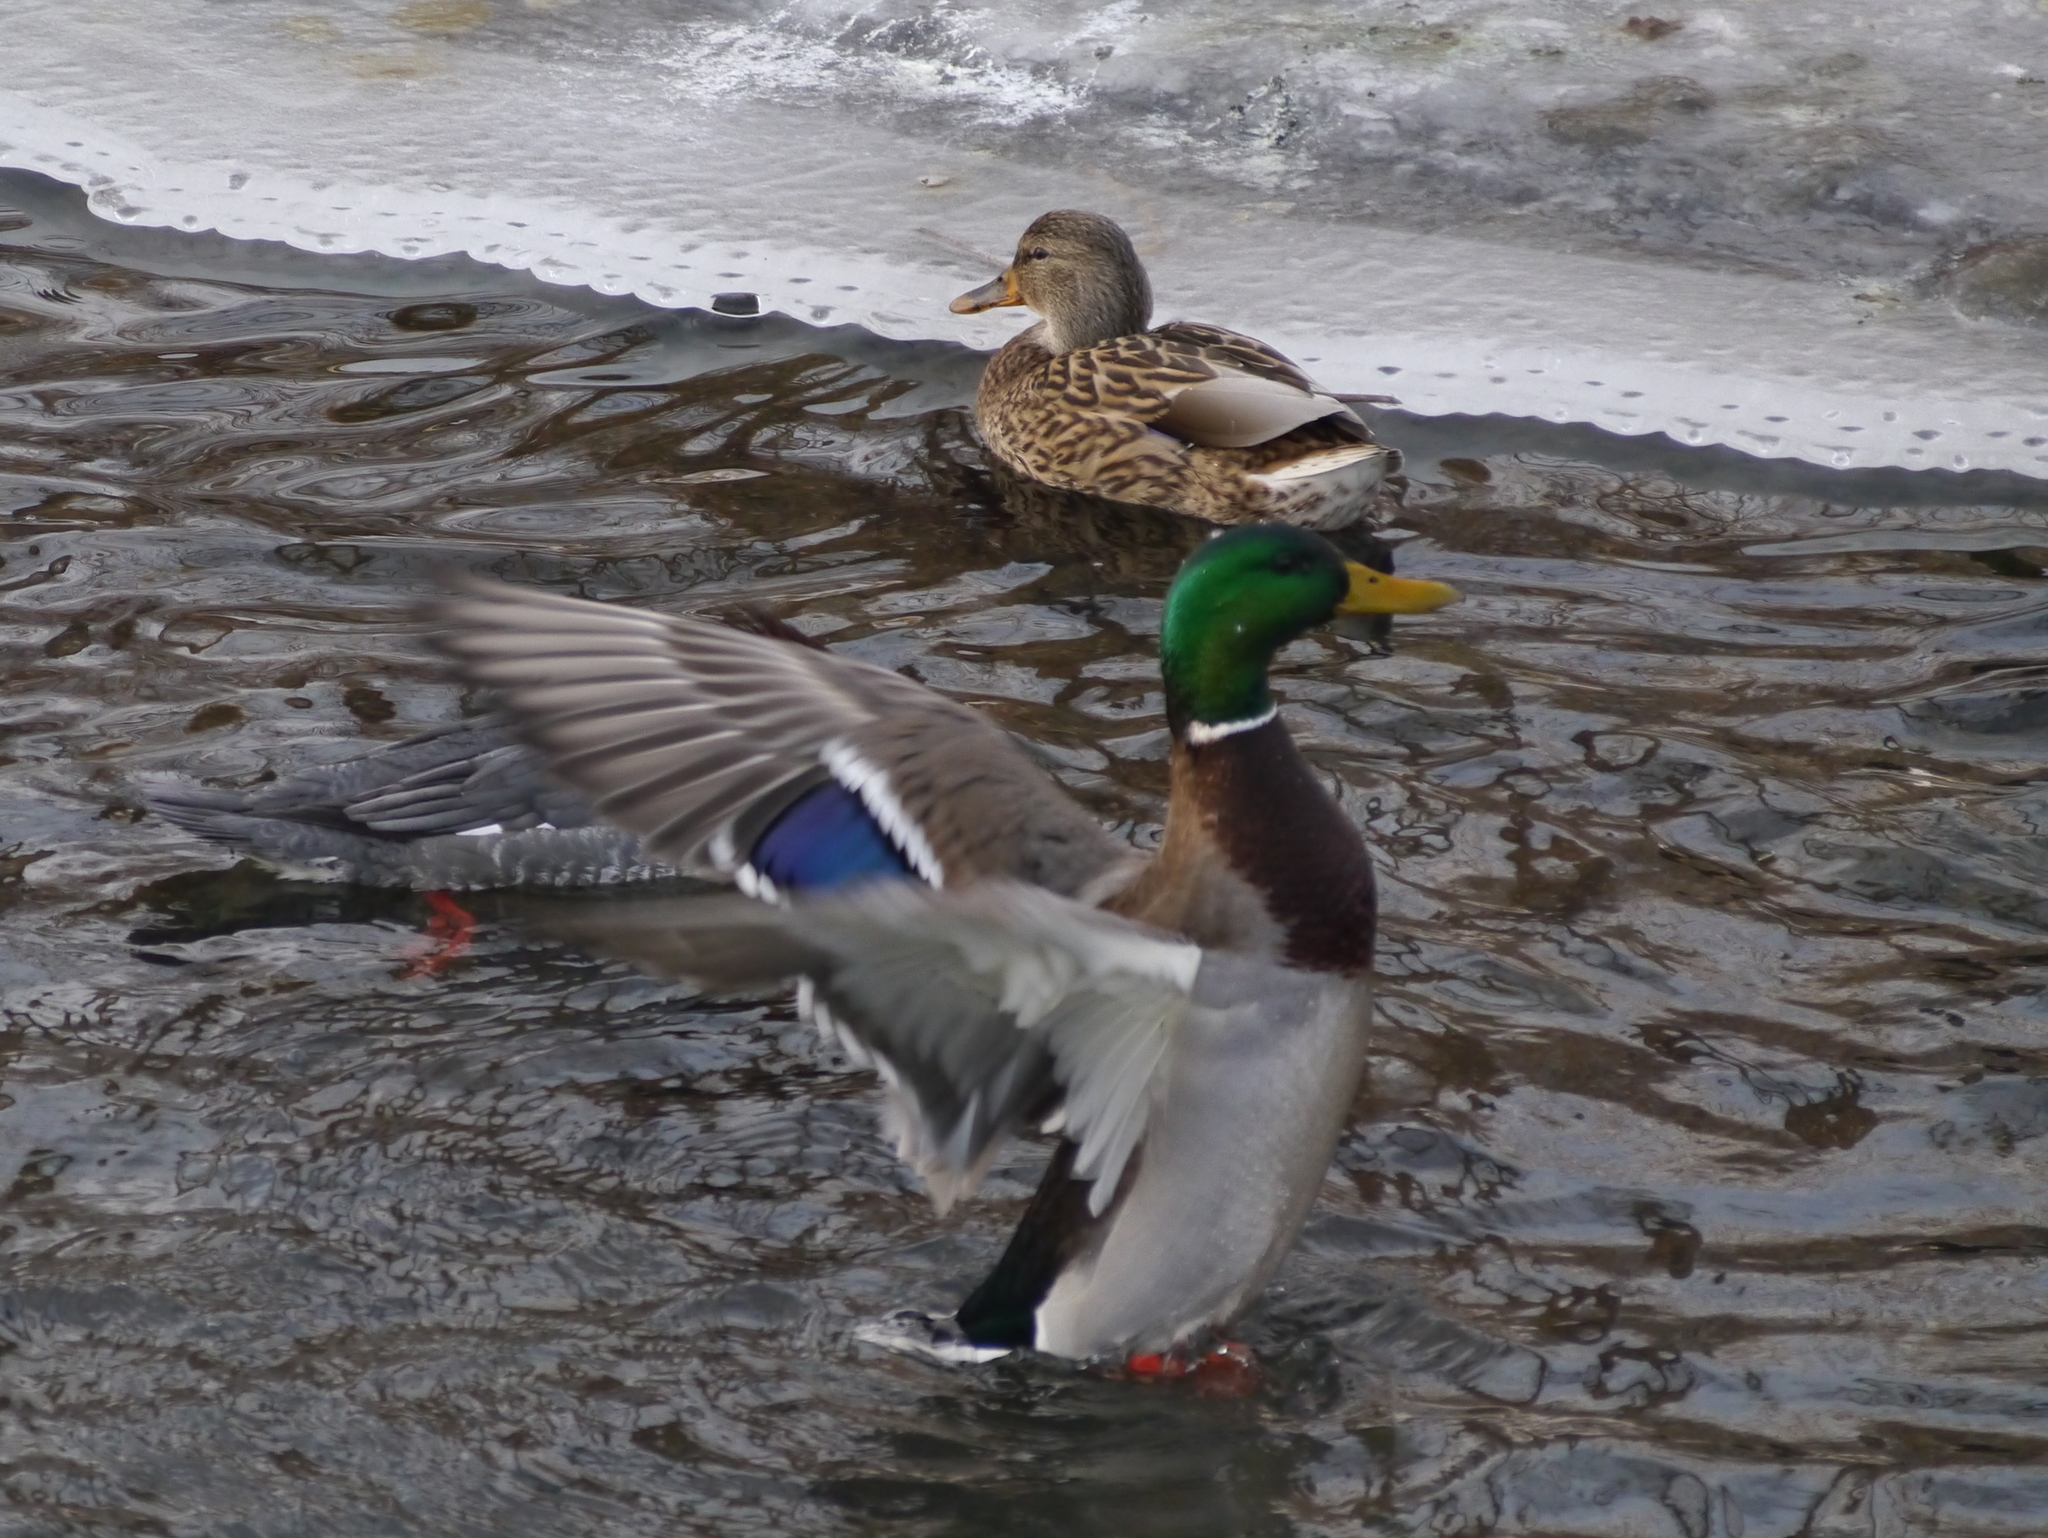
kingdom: Animalia
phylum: Chordata
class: Aves
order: Anseriformes
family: Anatidae
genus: Anas
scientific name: Anas platyrhynchos
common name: Mallard
